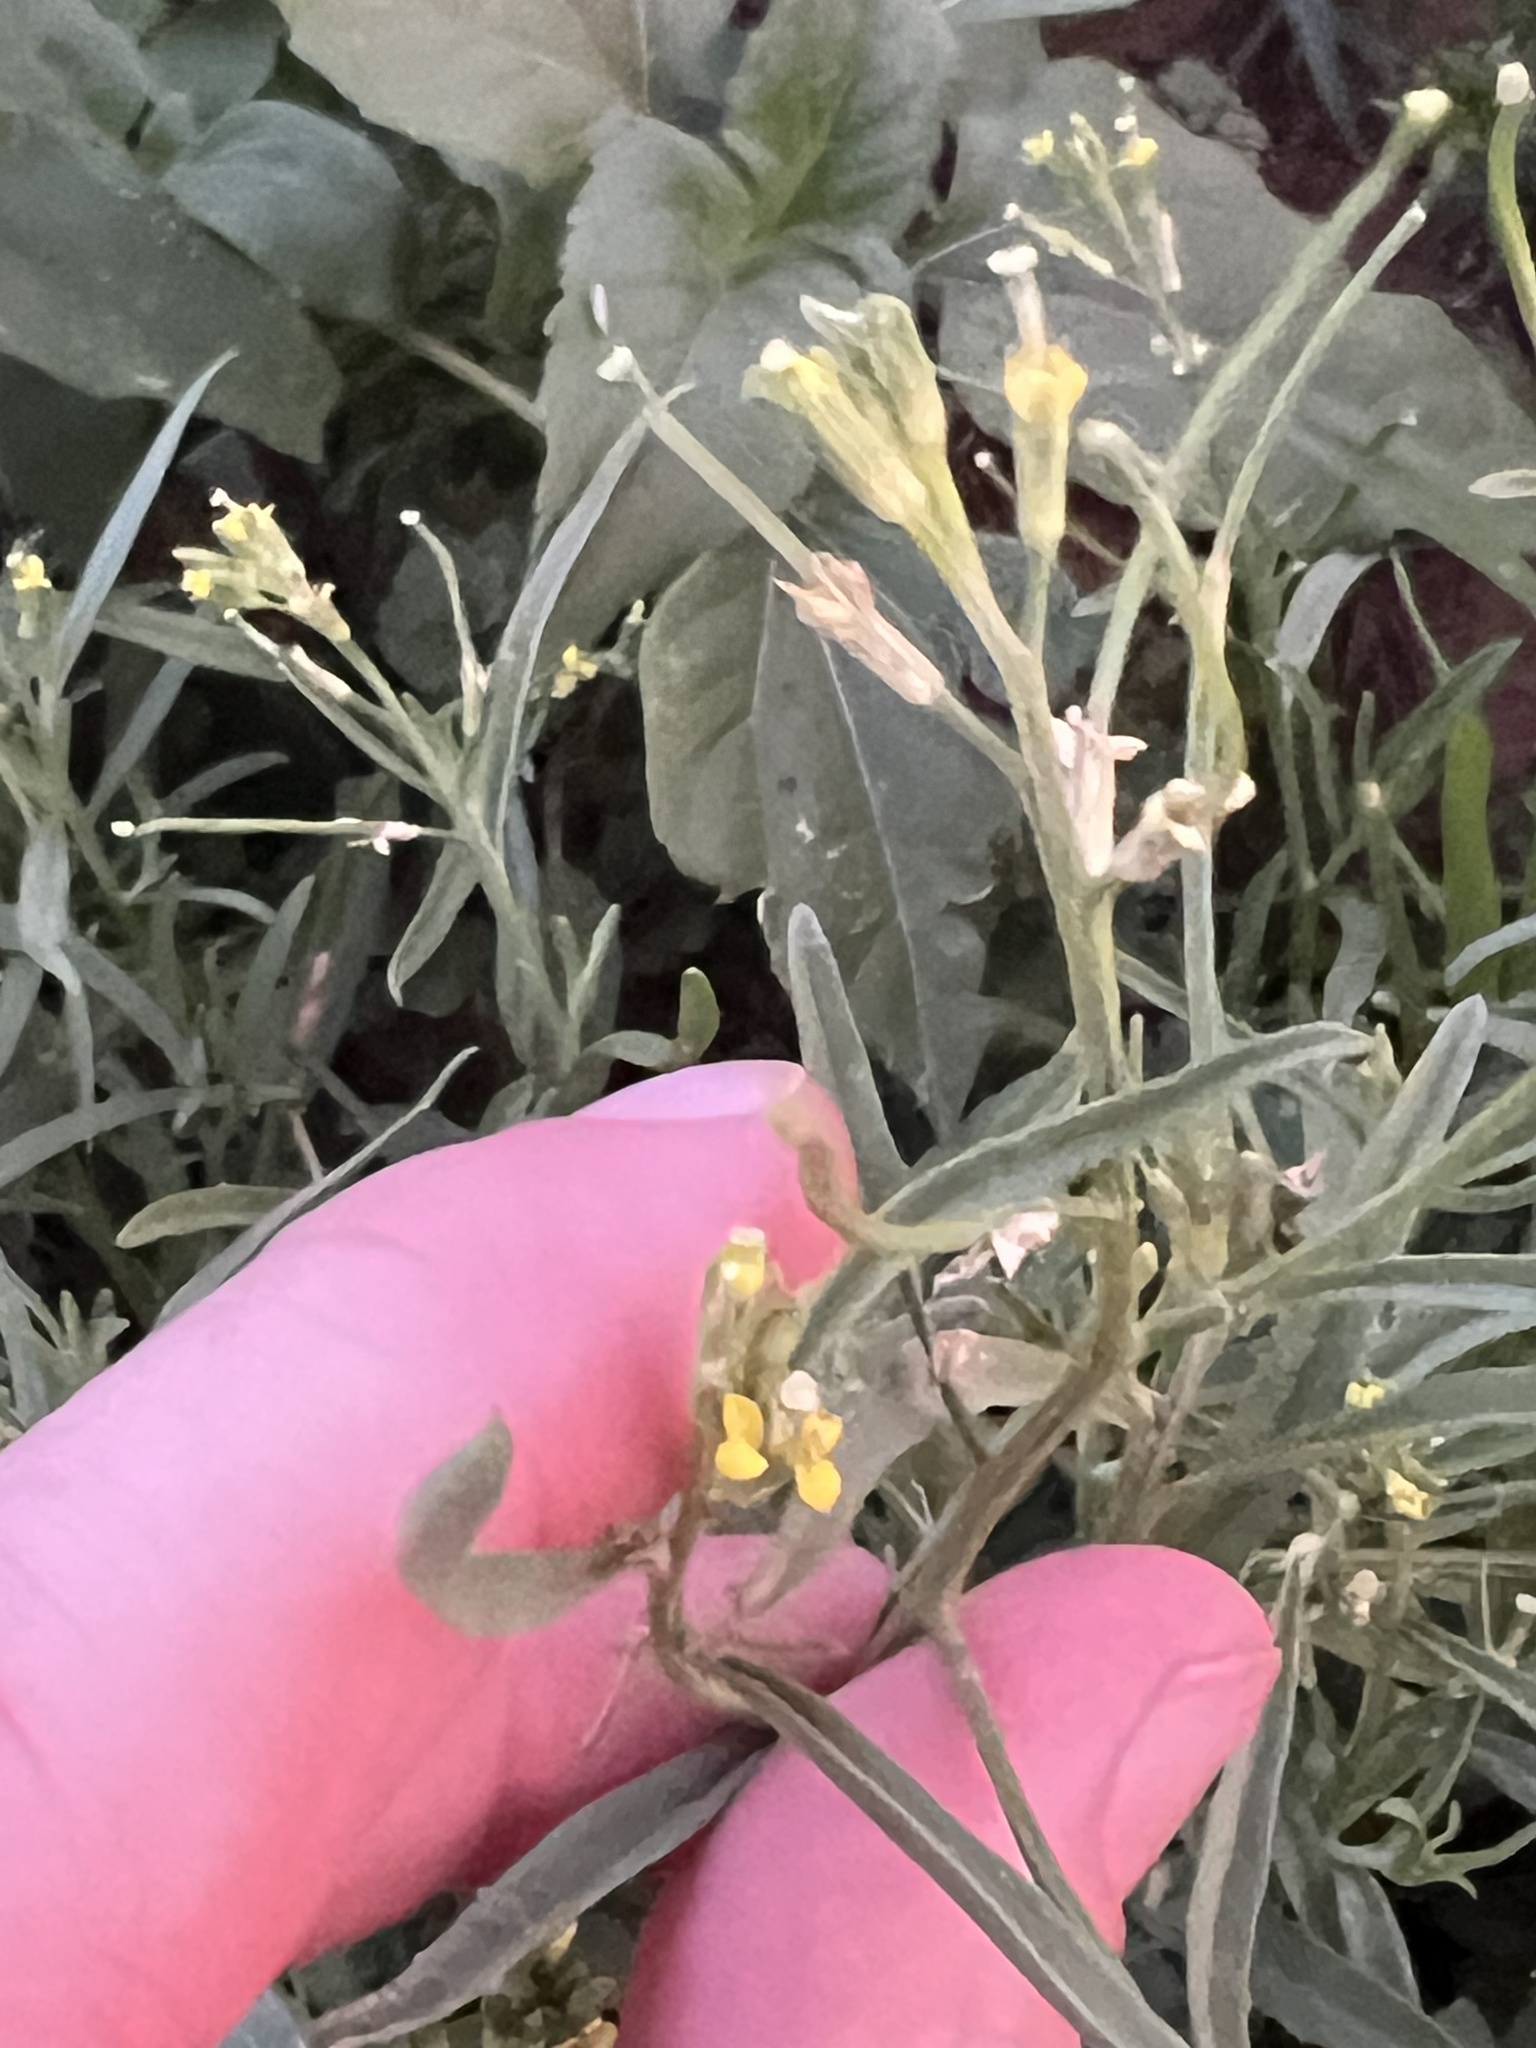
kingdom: Plantae
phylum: Tracheophyta
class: Magnoliopsida
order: Brassicales
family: Brassicaceae
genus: Erysimum
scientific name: Erysimum repandum
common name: Spreading wallflower
